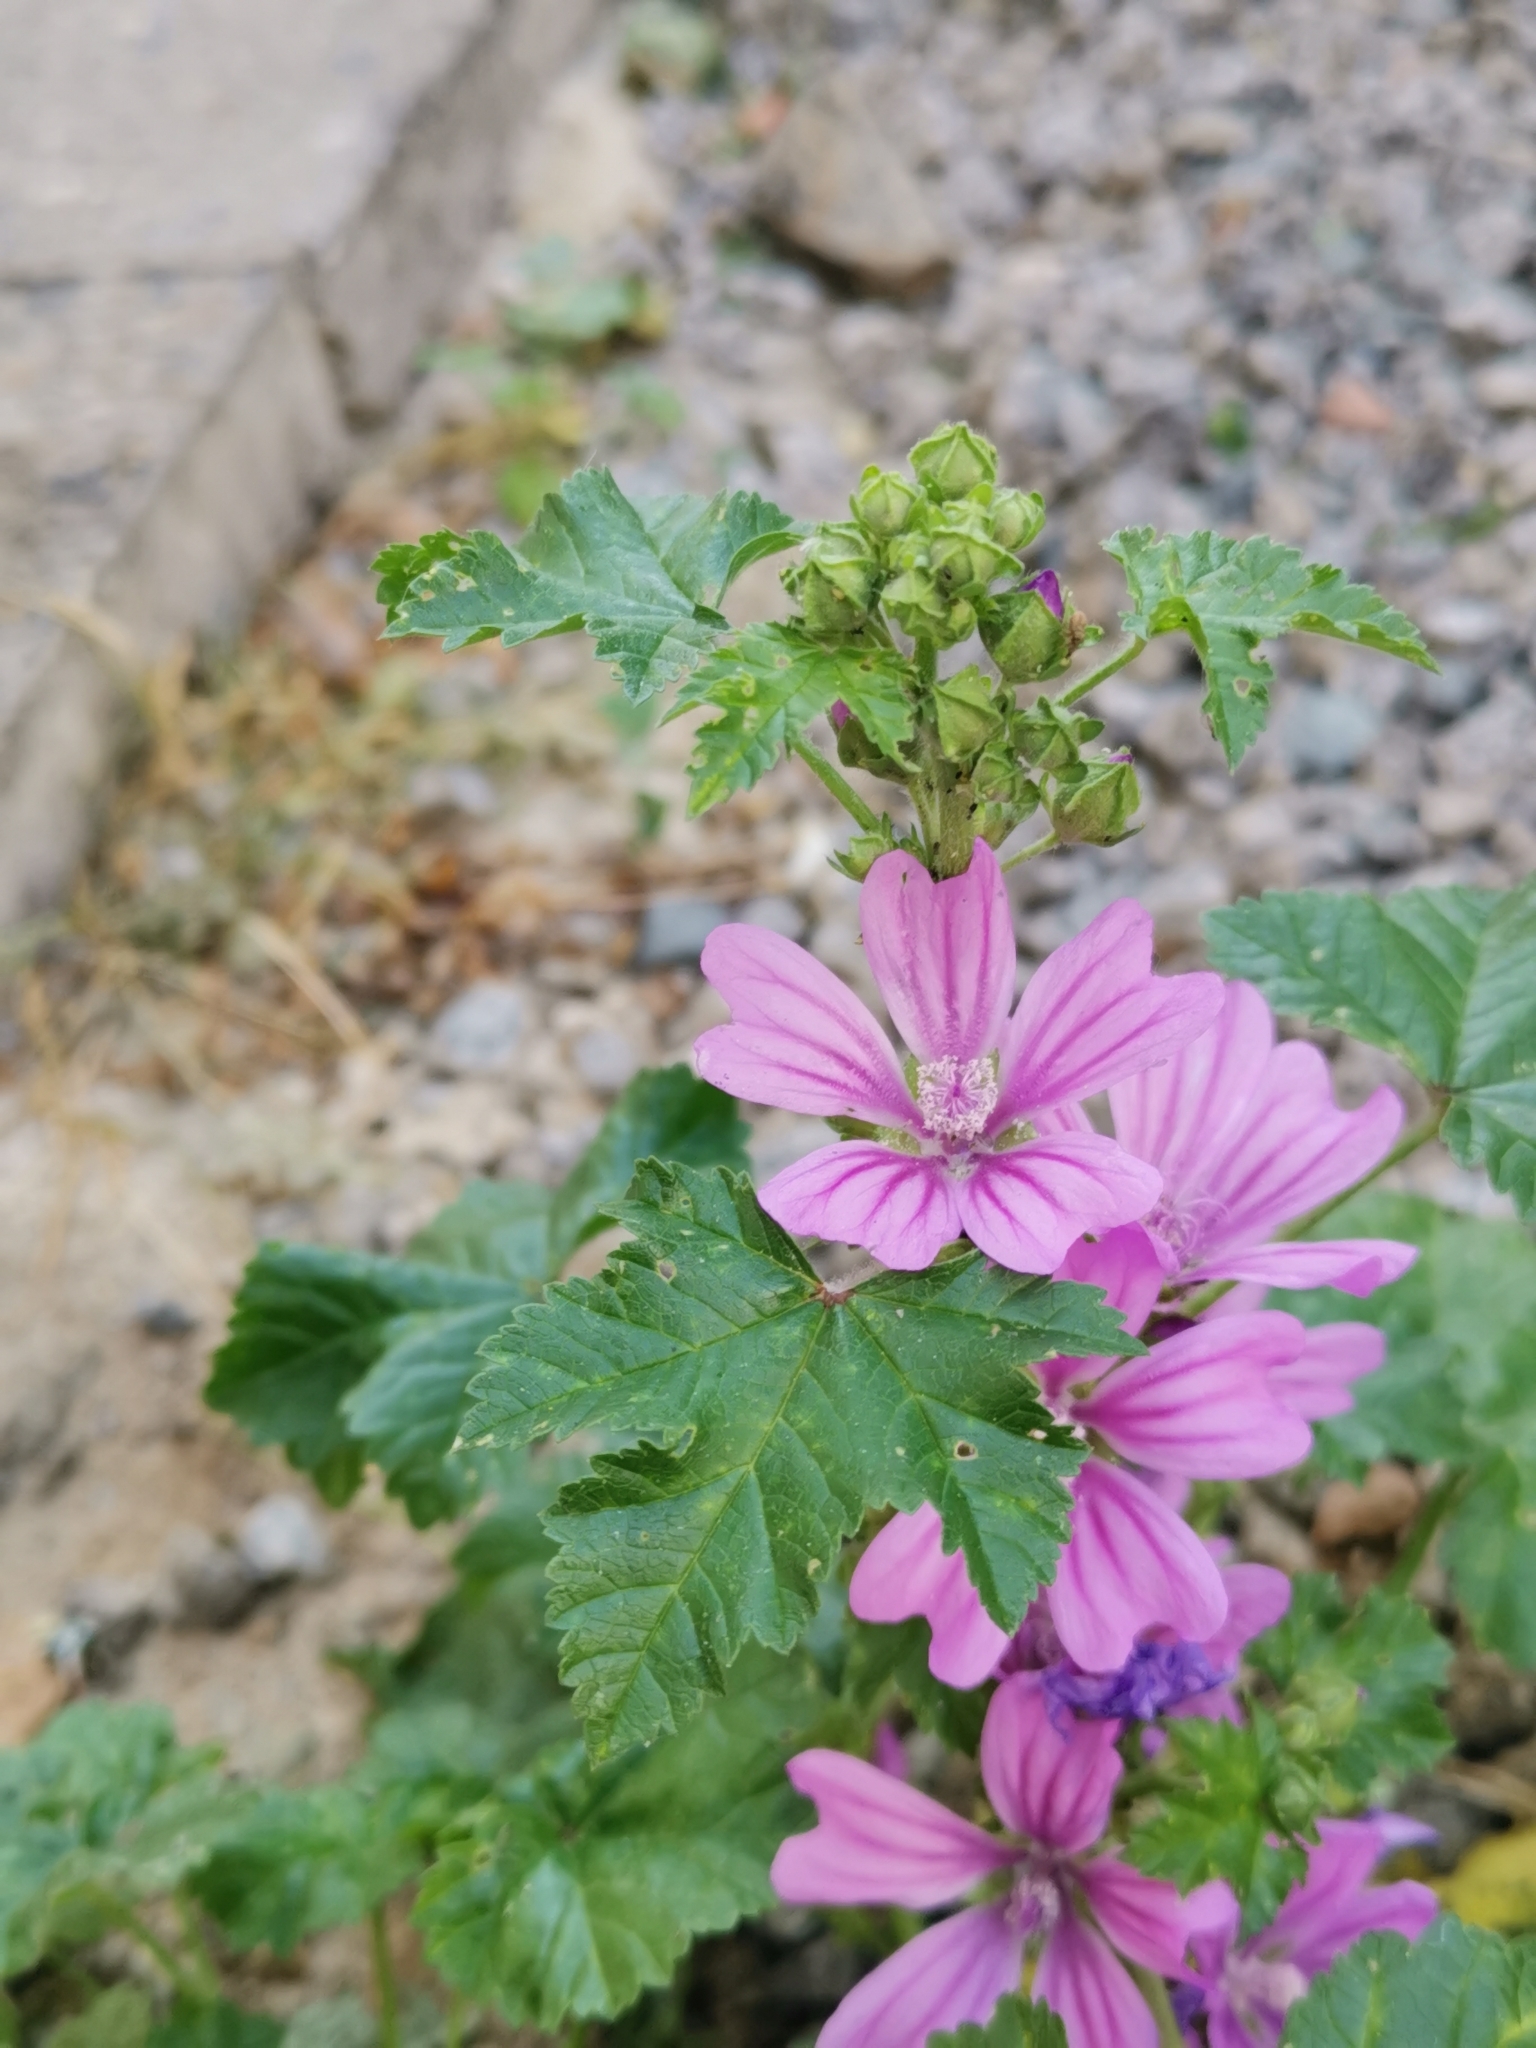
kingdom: Plantae
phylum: Tracheophyta
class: Magnoliopsida
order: Malvales
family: Malvaceae
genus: Malva
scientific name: Malva sylvestris
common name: Common mallow
